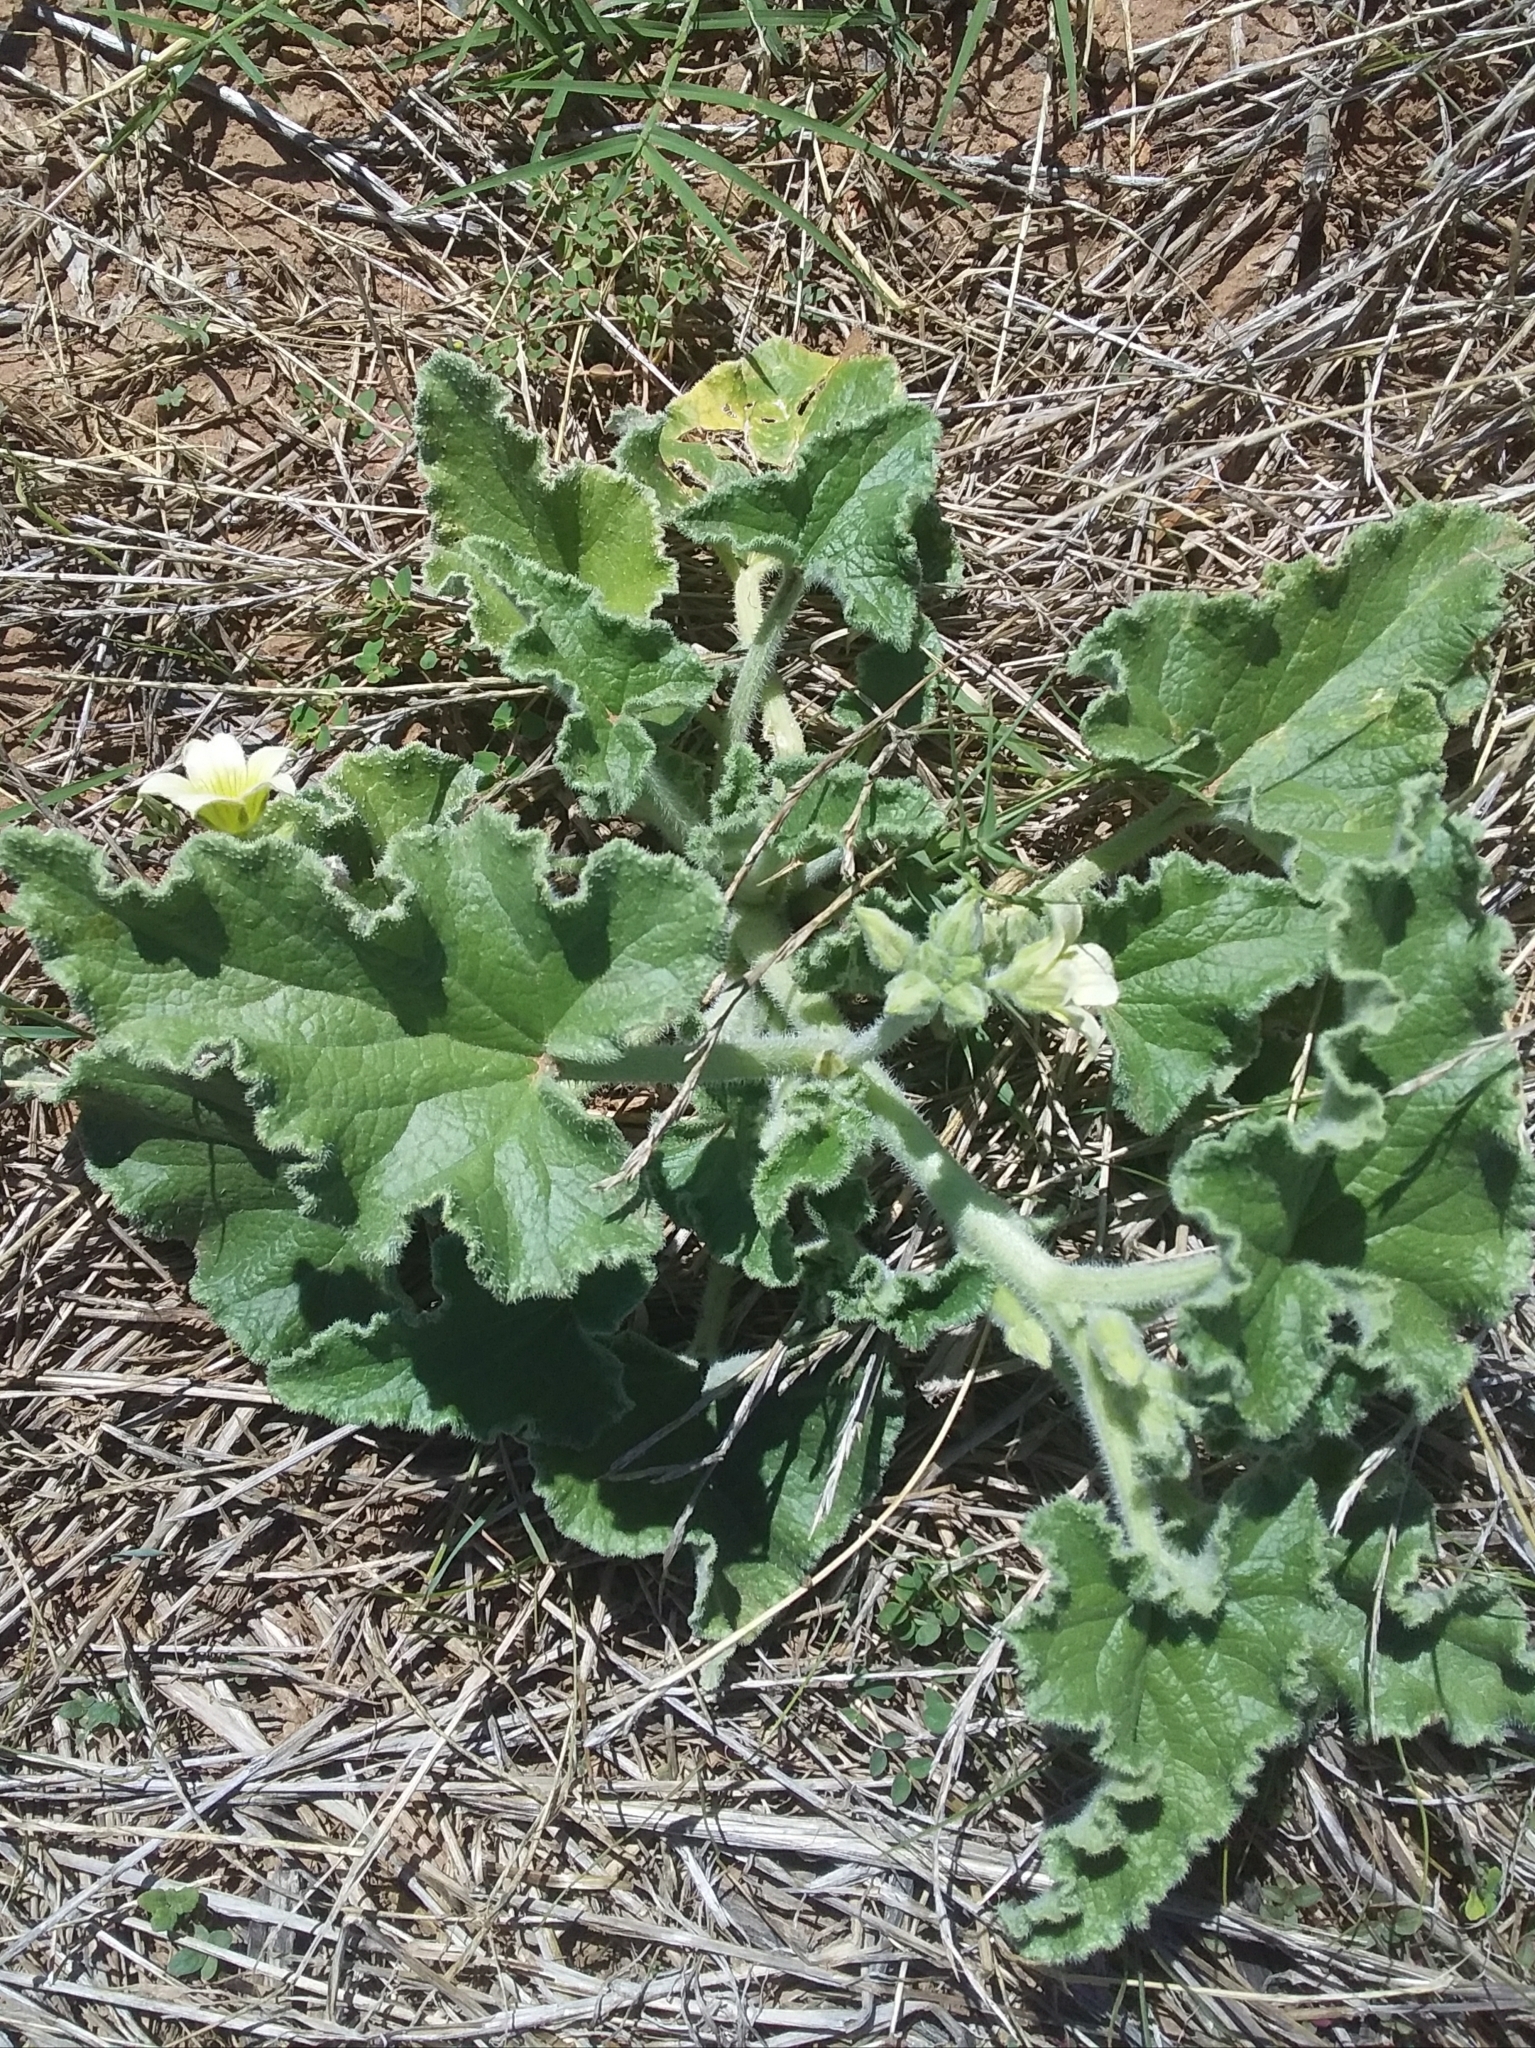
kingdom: Plantae
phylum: Tracheophyta
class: Magnoliopsida
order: Cucurbitales
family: Cucurbitaceae
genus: Ecballium
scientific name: Ecballium elaterium
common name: Squirting cucumber
